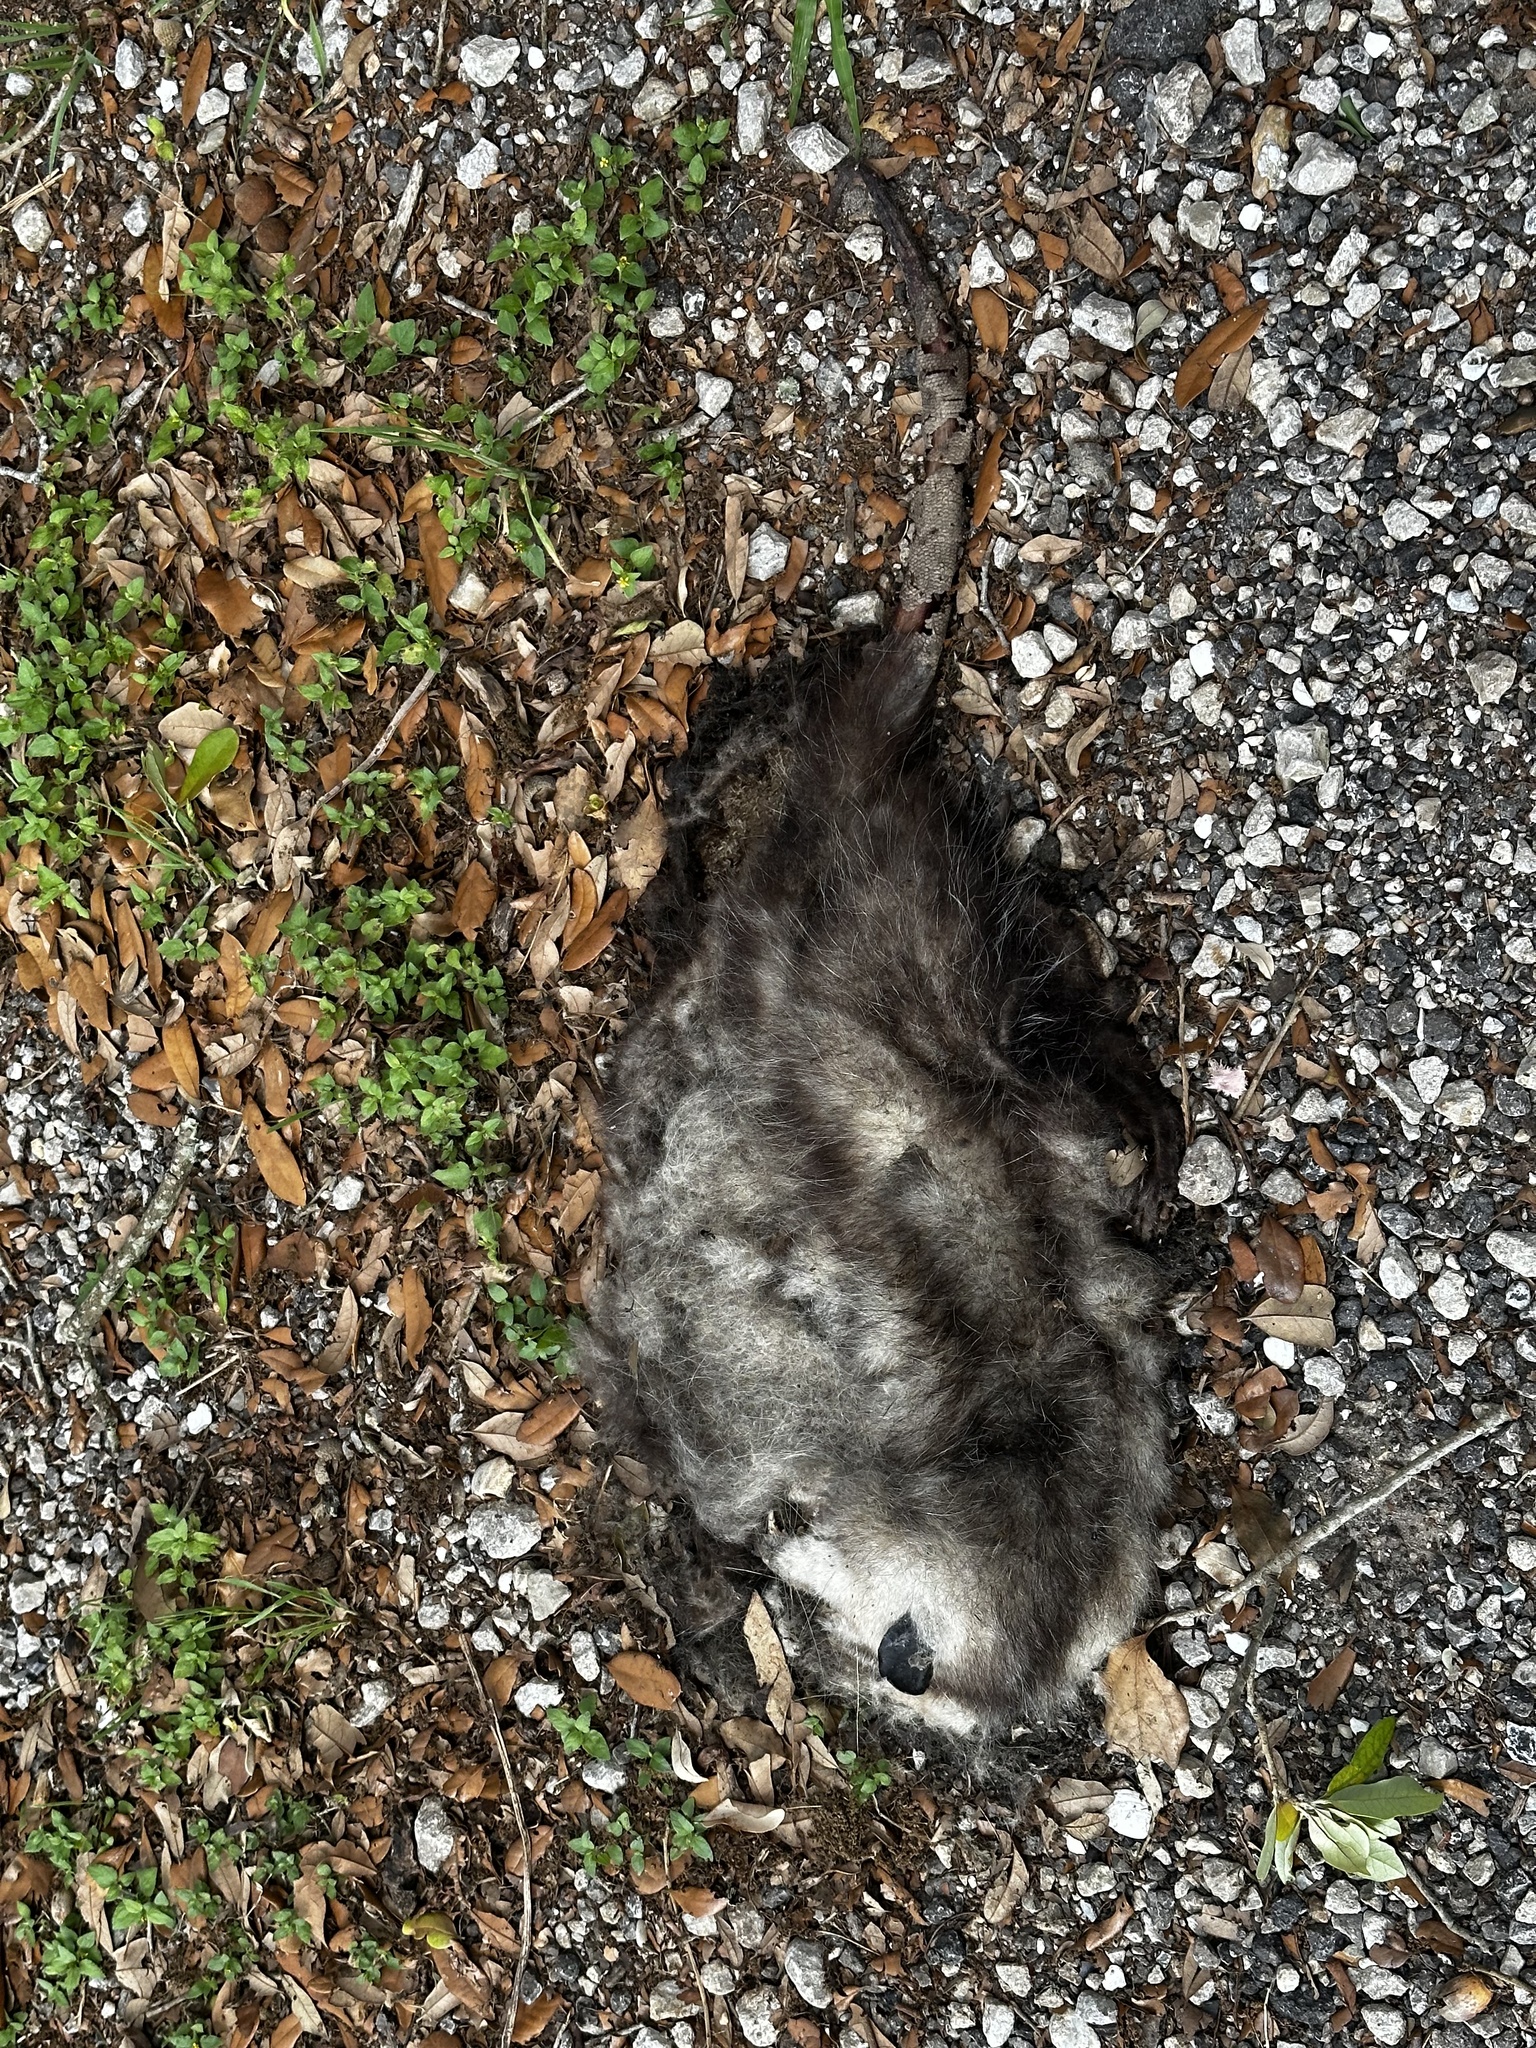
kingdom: Animalia
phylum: Chordata
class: Mammalia
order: Didelphimorphia
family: Didelphidae
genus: Didelphis
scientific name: Didelphis virginiana
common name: Virginia opossum
